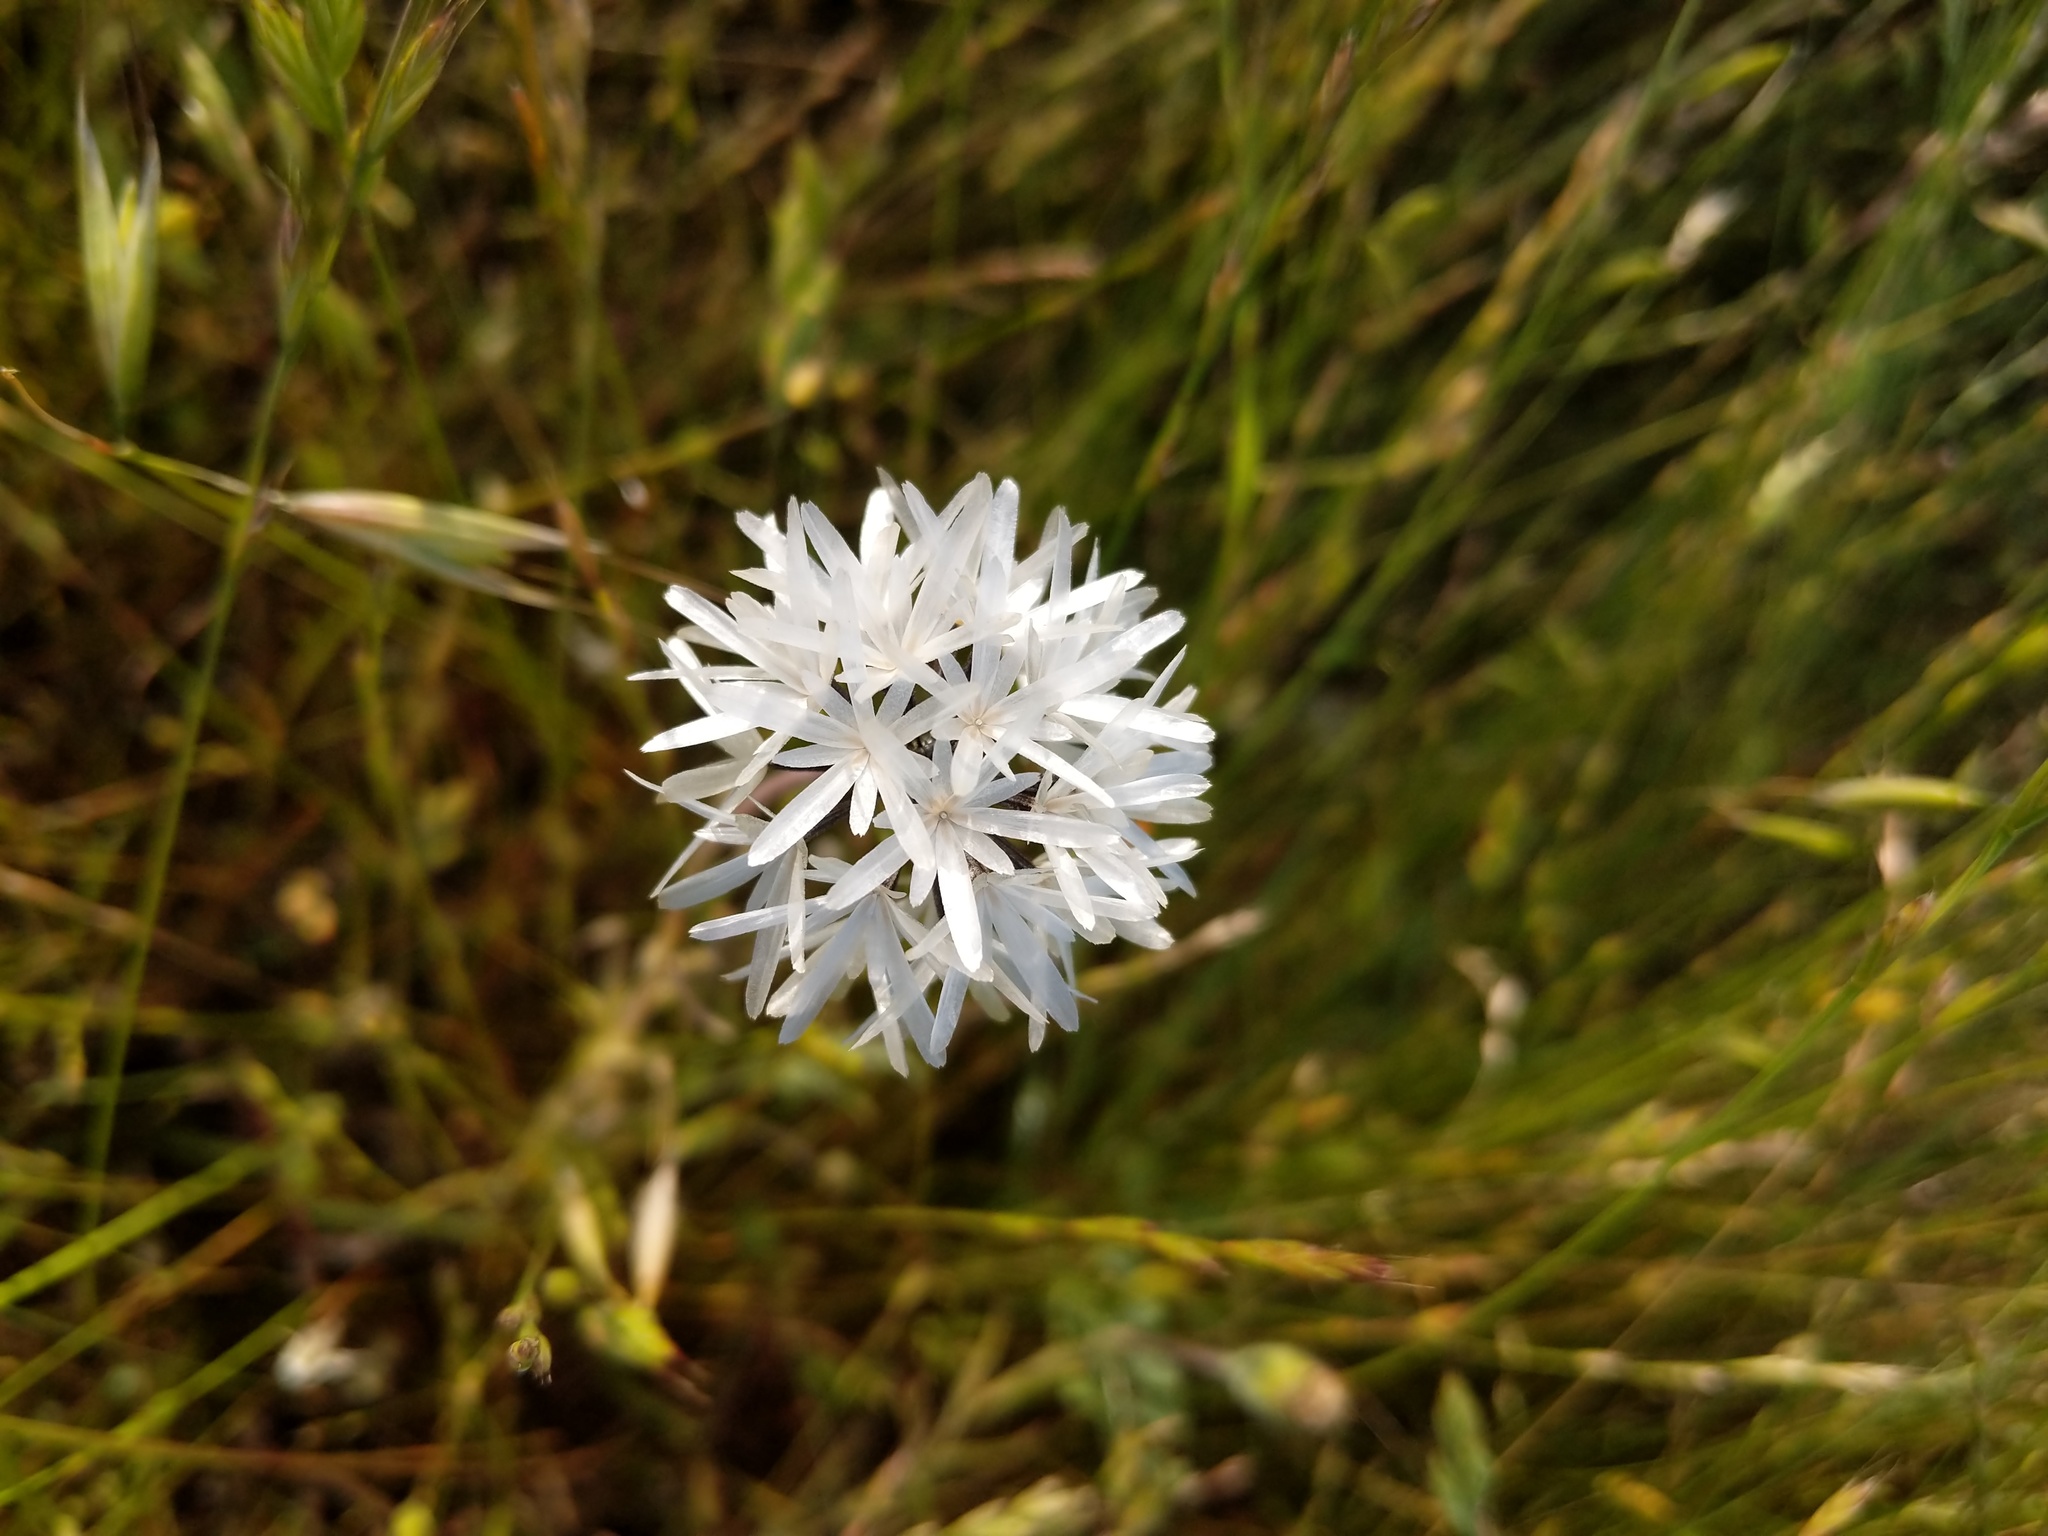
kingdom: Plantae
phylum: Tracheophyta
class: Magnoliopsida
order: Asterales
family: Asteraceae
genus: Achyrachaena
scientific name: Achyrachaena mollis
